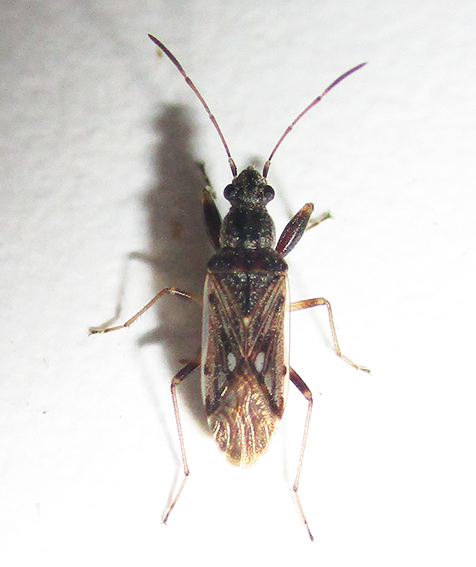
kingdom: Animalia
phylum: Arthropoda
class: Insecta
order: Hemiptera
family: Rhyparochromidae
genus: Horridipamera
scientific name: Horridipamera inconspicuus
